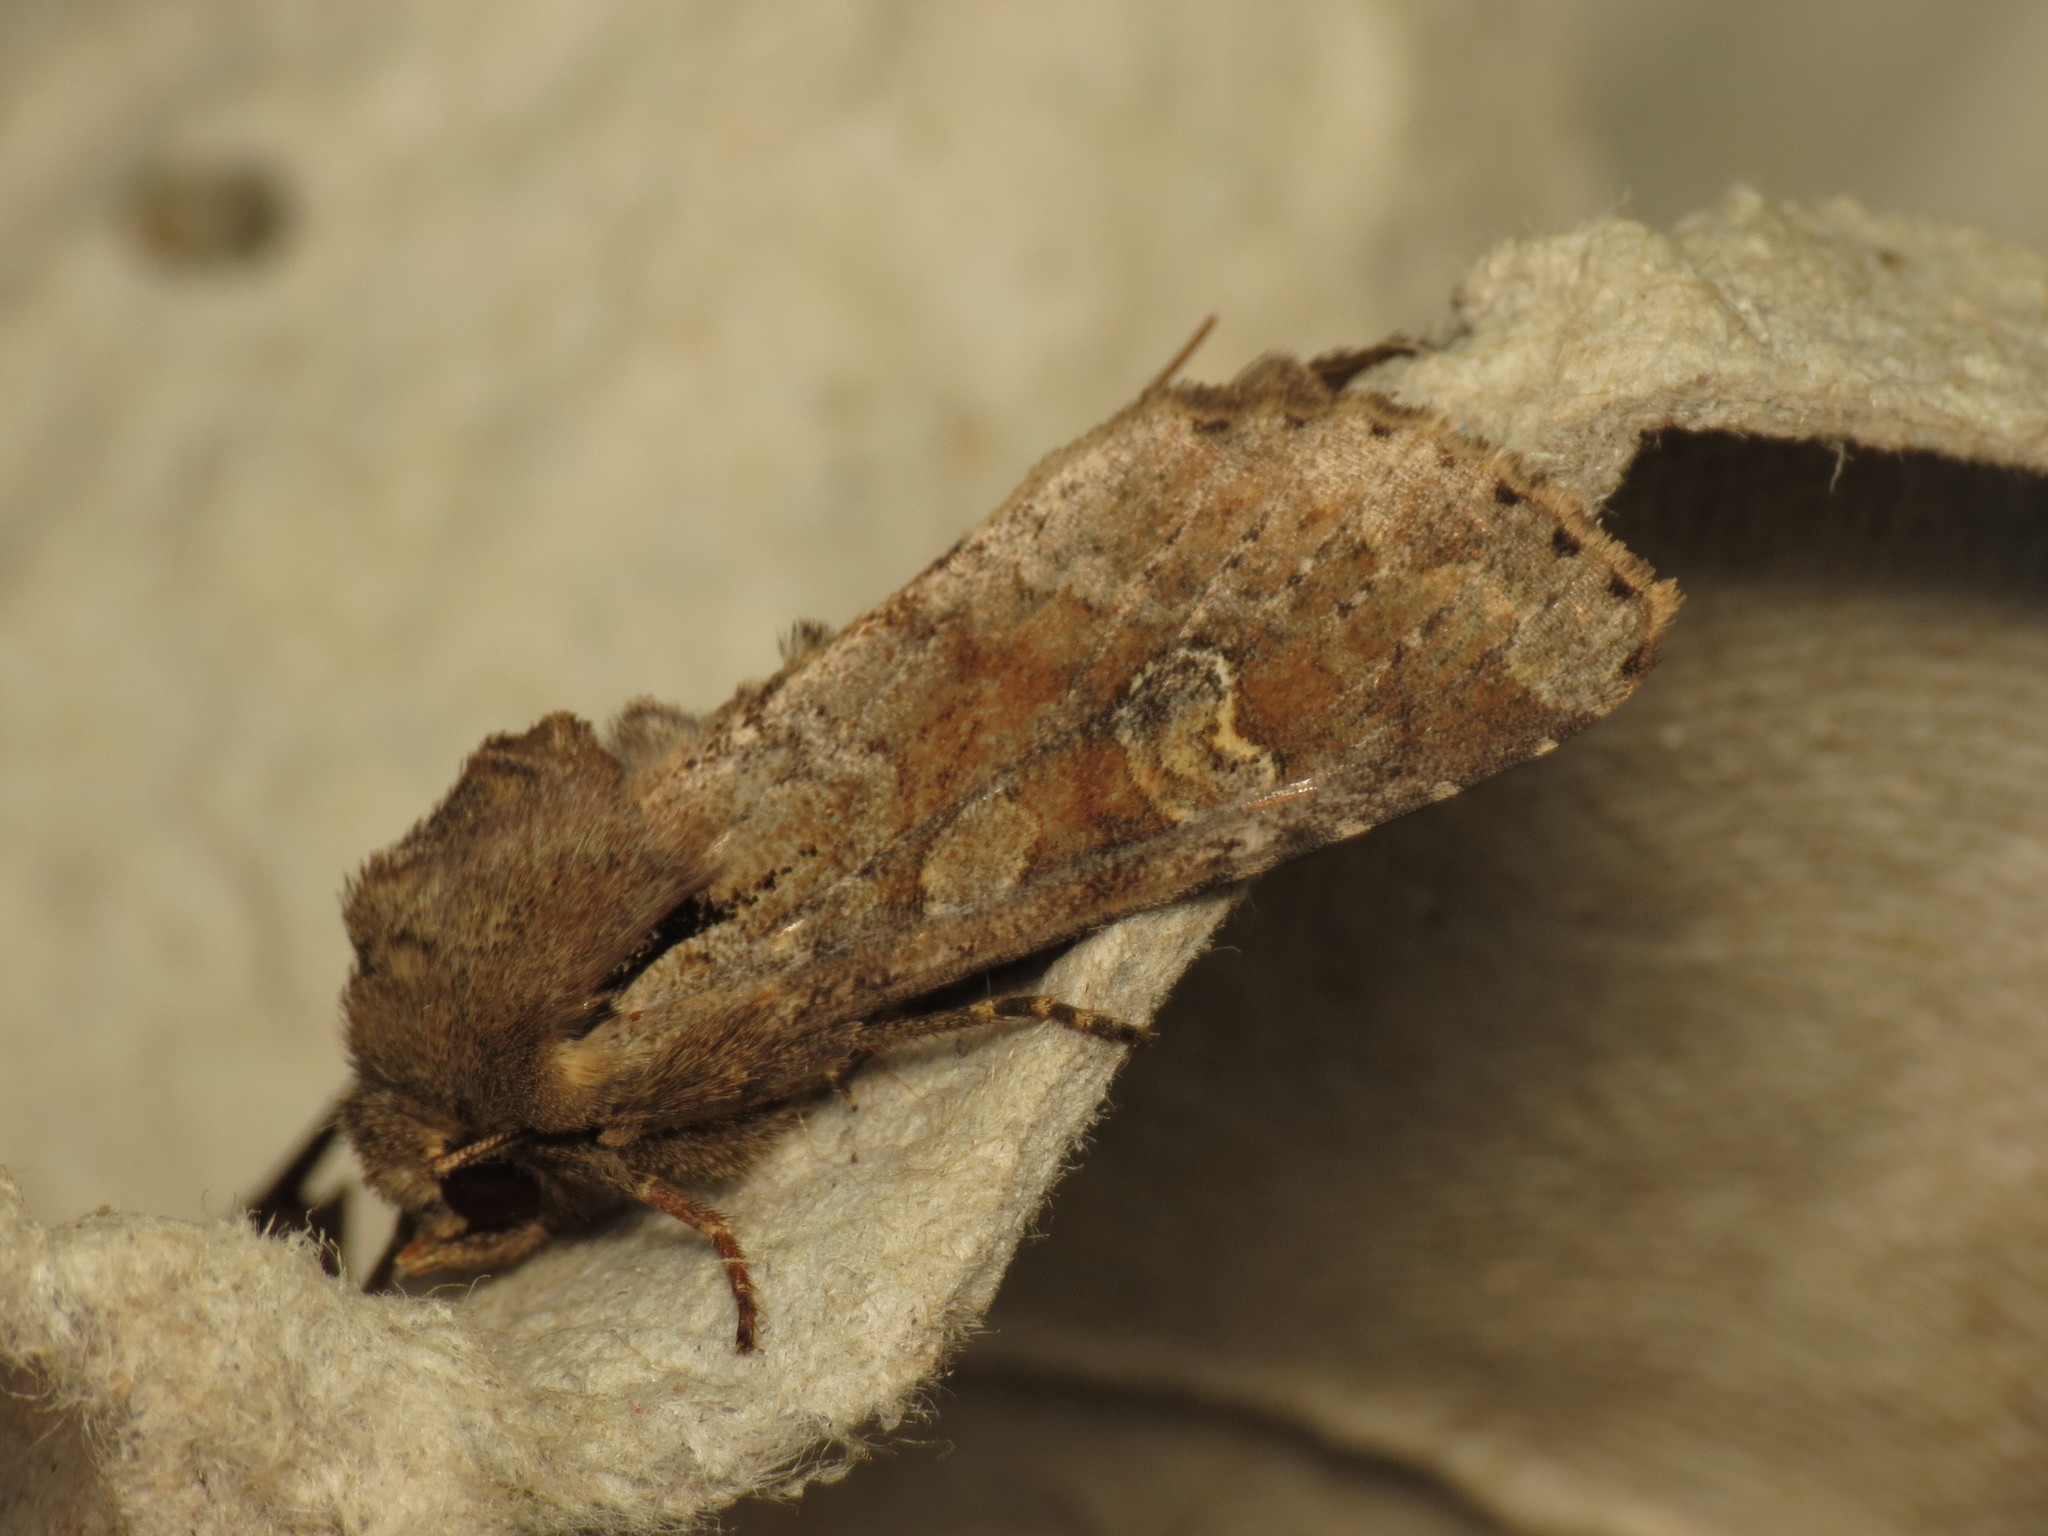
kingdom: Animalia
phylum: Arthropoda
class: Insecta
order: Lepidoptera
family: Noctuidae
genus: Apamea
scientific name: Apamea sordens
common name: Rustic shoulder-knot
